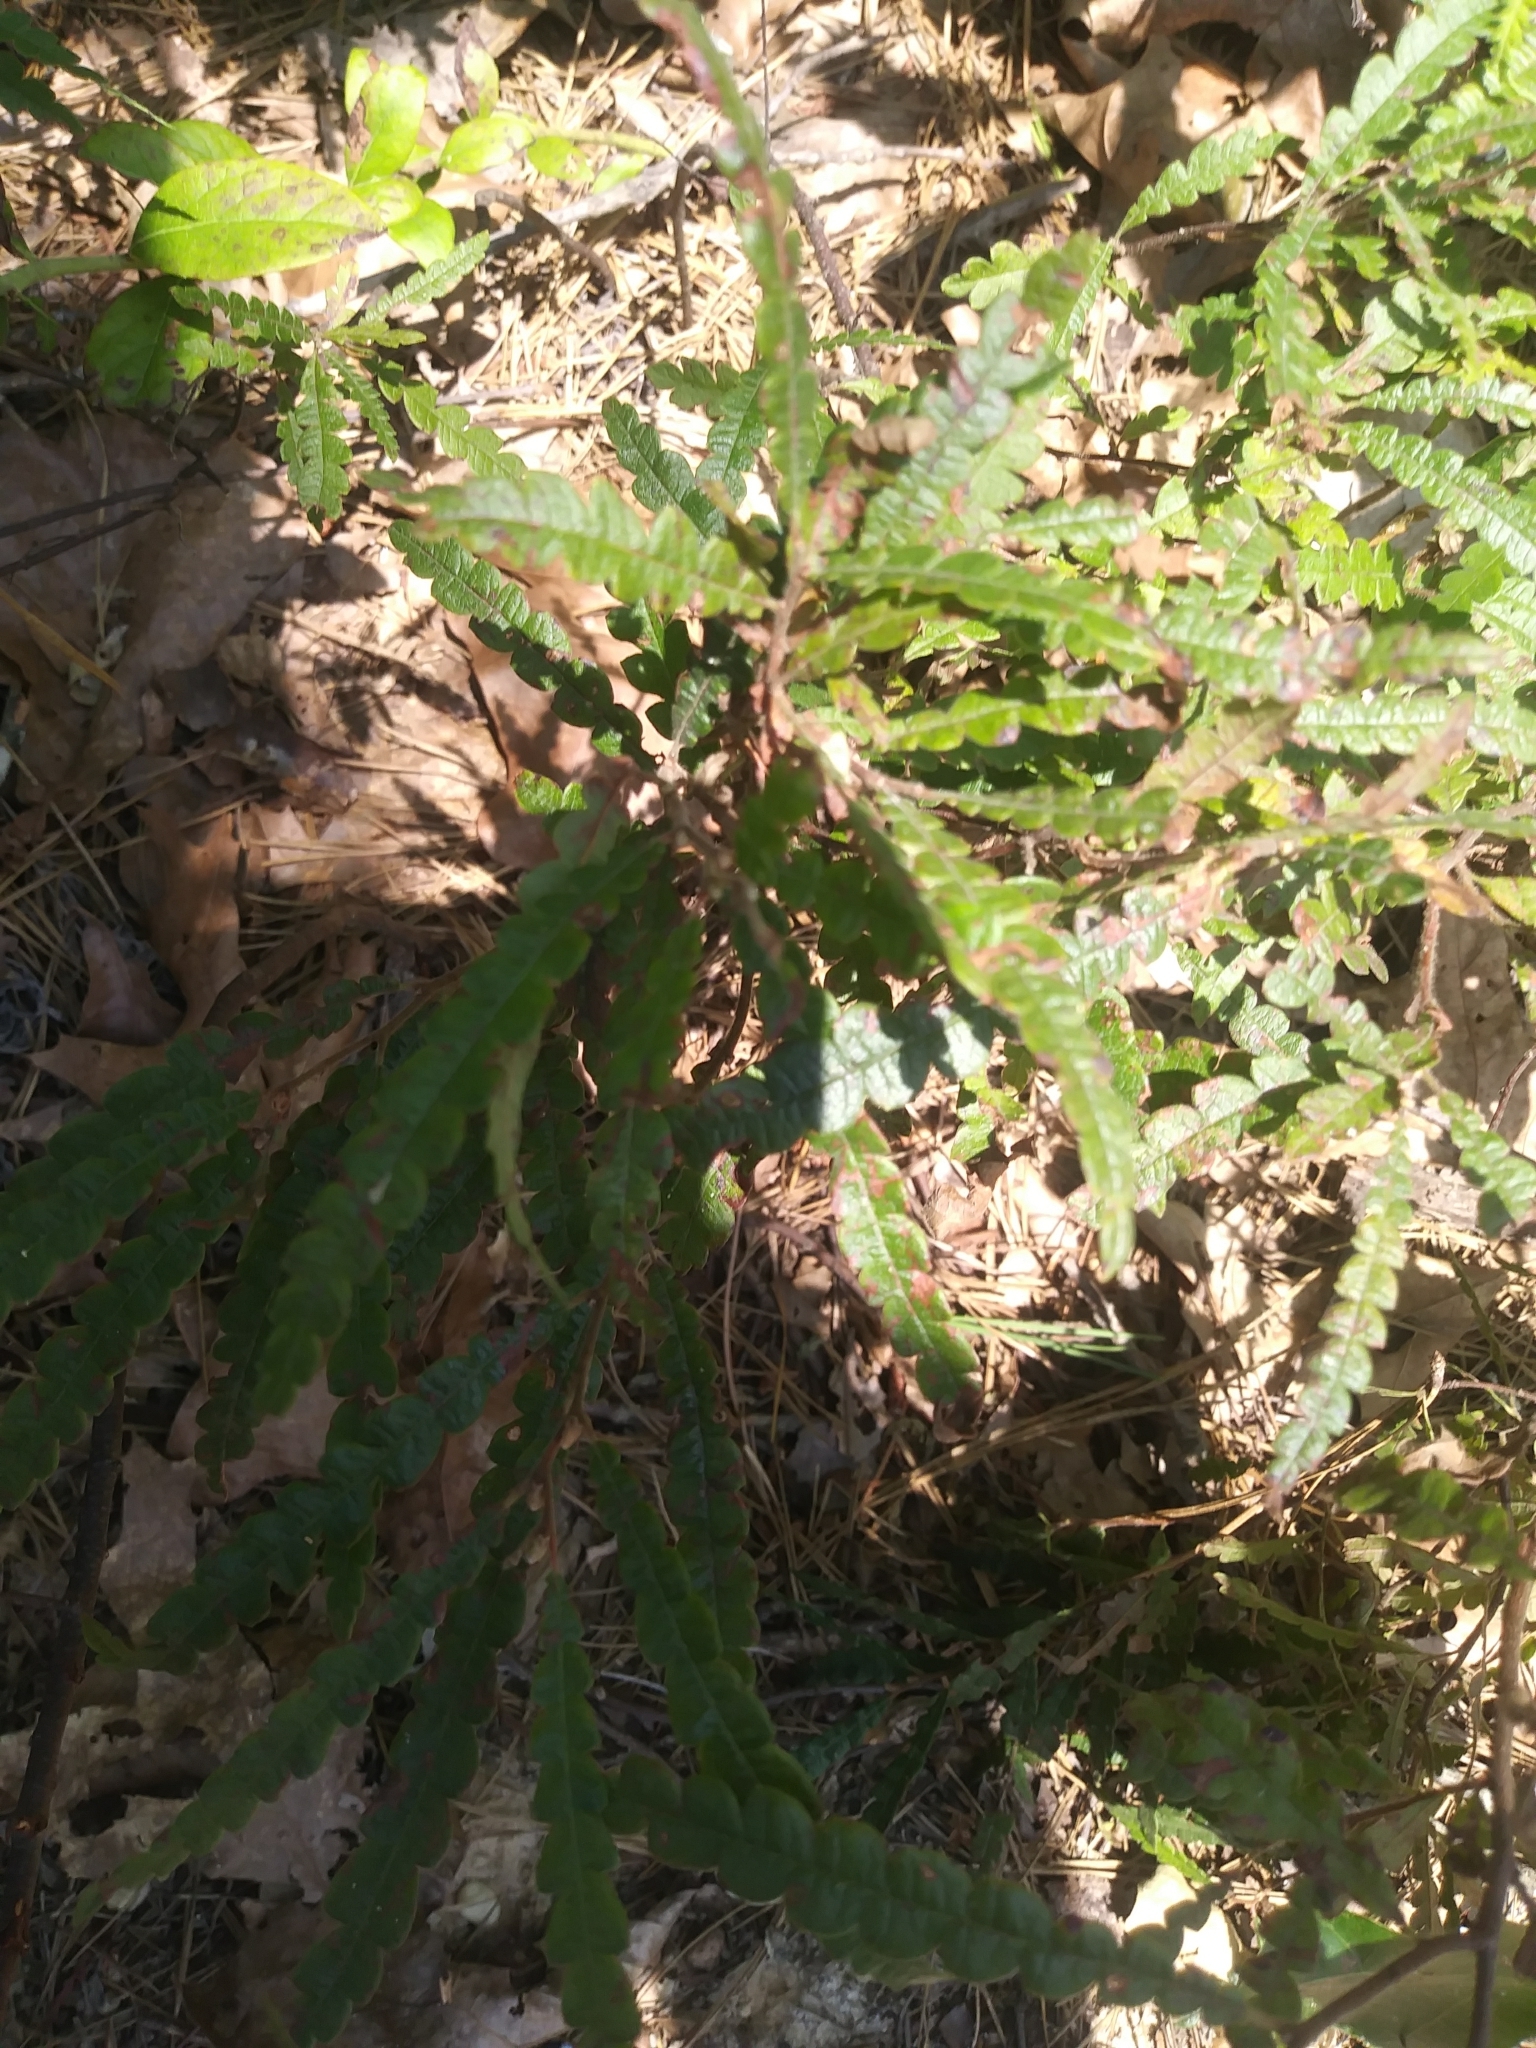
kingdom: Plantae
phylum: Tracheophyta
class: Magnoliopsida
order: Fagales
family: Myricaceae
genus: Comptonia
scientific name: Comptonia peregrina
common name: Sweet-fern
